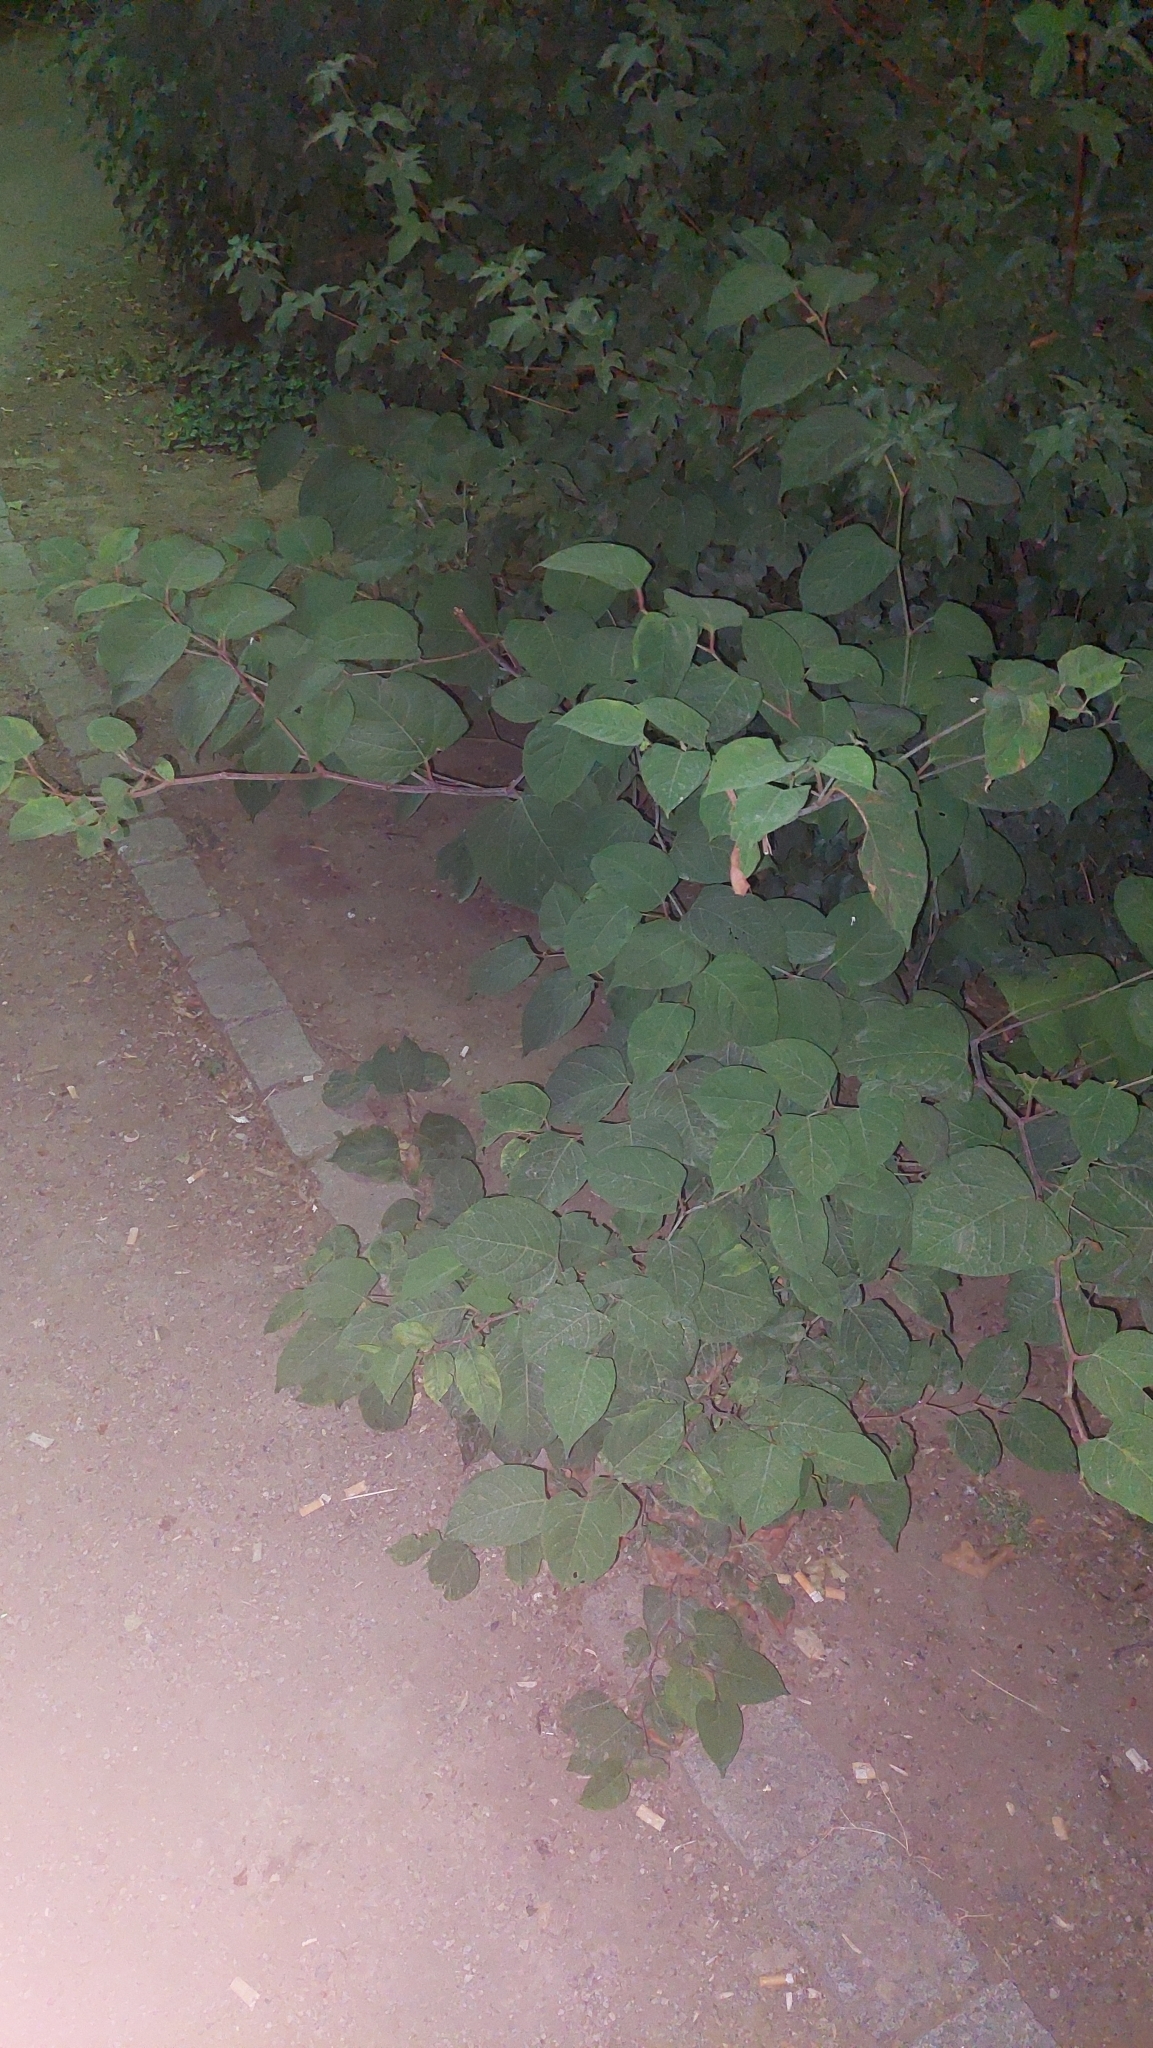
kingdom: Plantae
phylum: Tracheophyta
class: Magnoliopsida
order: Caryophyllales
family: Polygonaceae
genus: Reynoutria
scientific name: Reynoutria japonica
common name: Japanese knotweed
